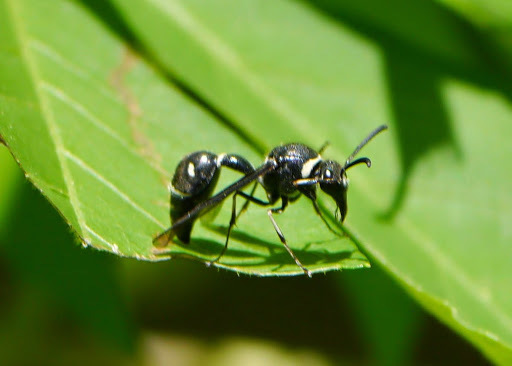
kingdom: Animalia
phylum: Arthropoda
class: Insecta
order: Hymenoptera
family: Vespidae
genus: Eumenes
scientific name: Eumenes fraternus
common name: Fraternal potter wasp
